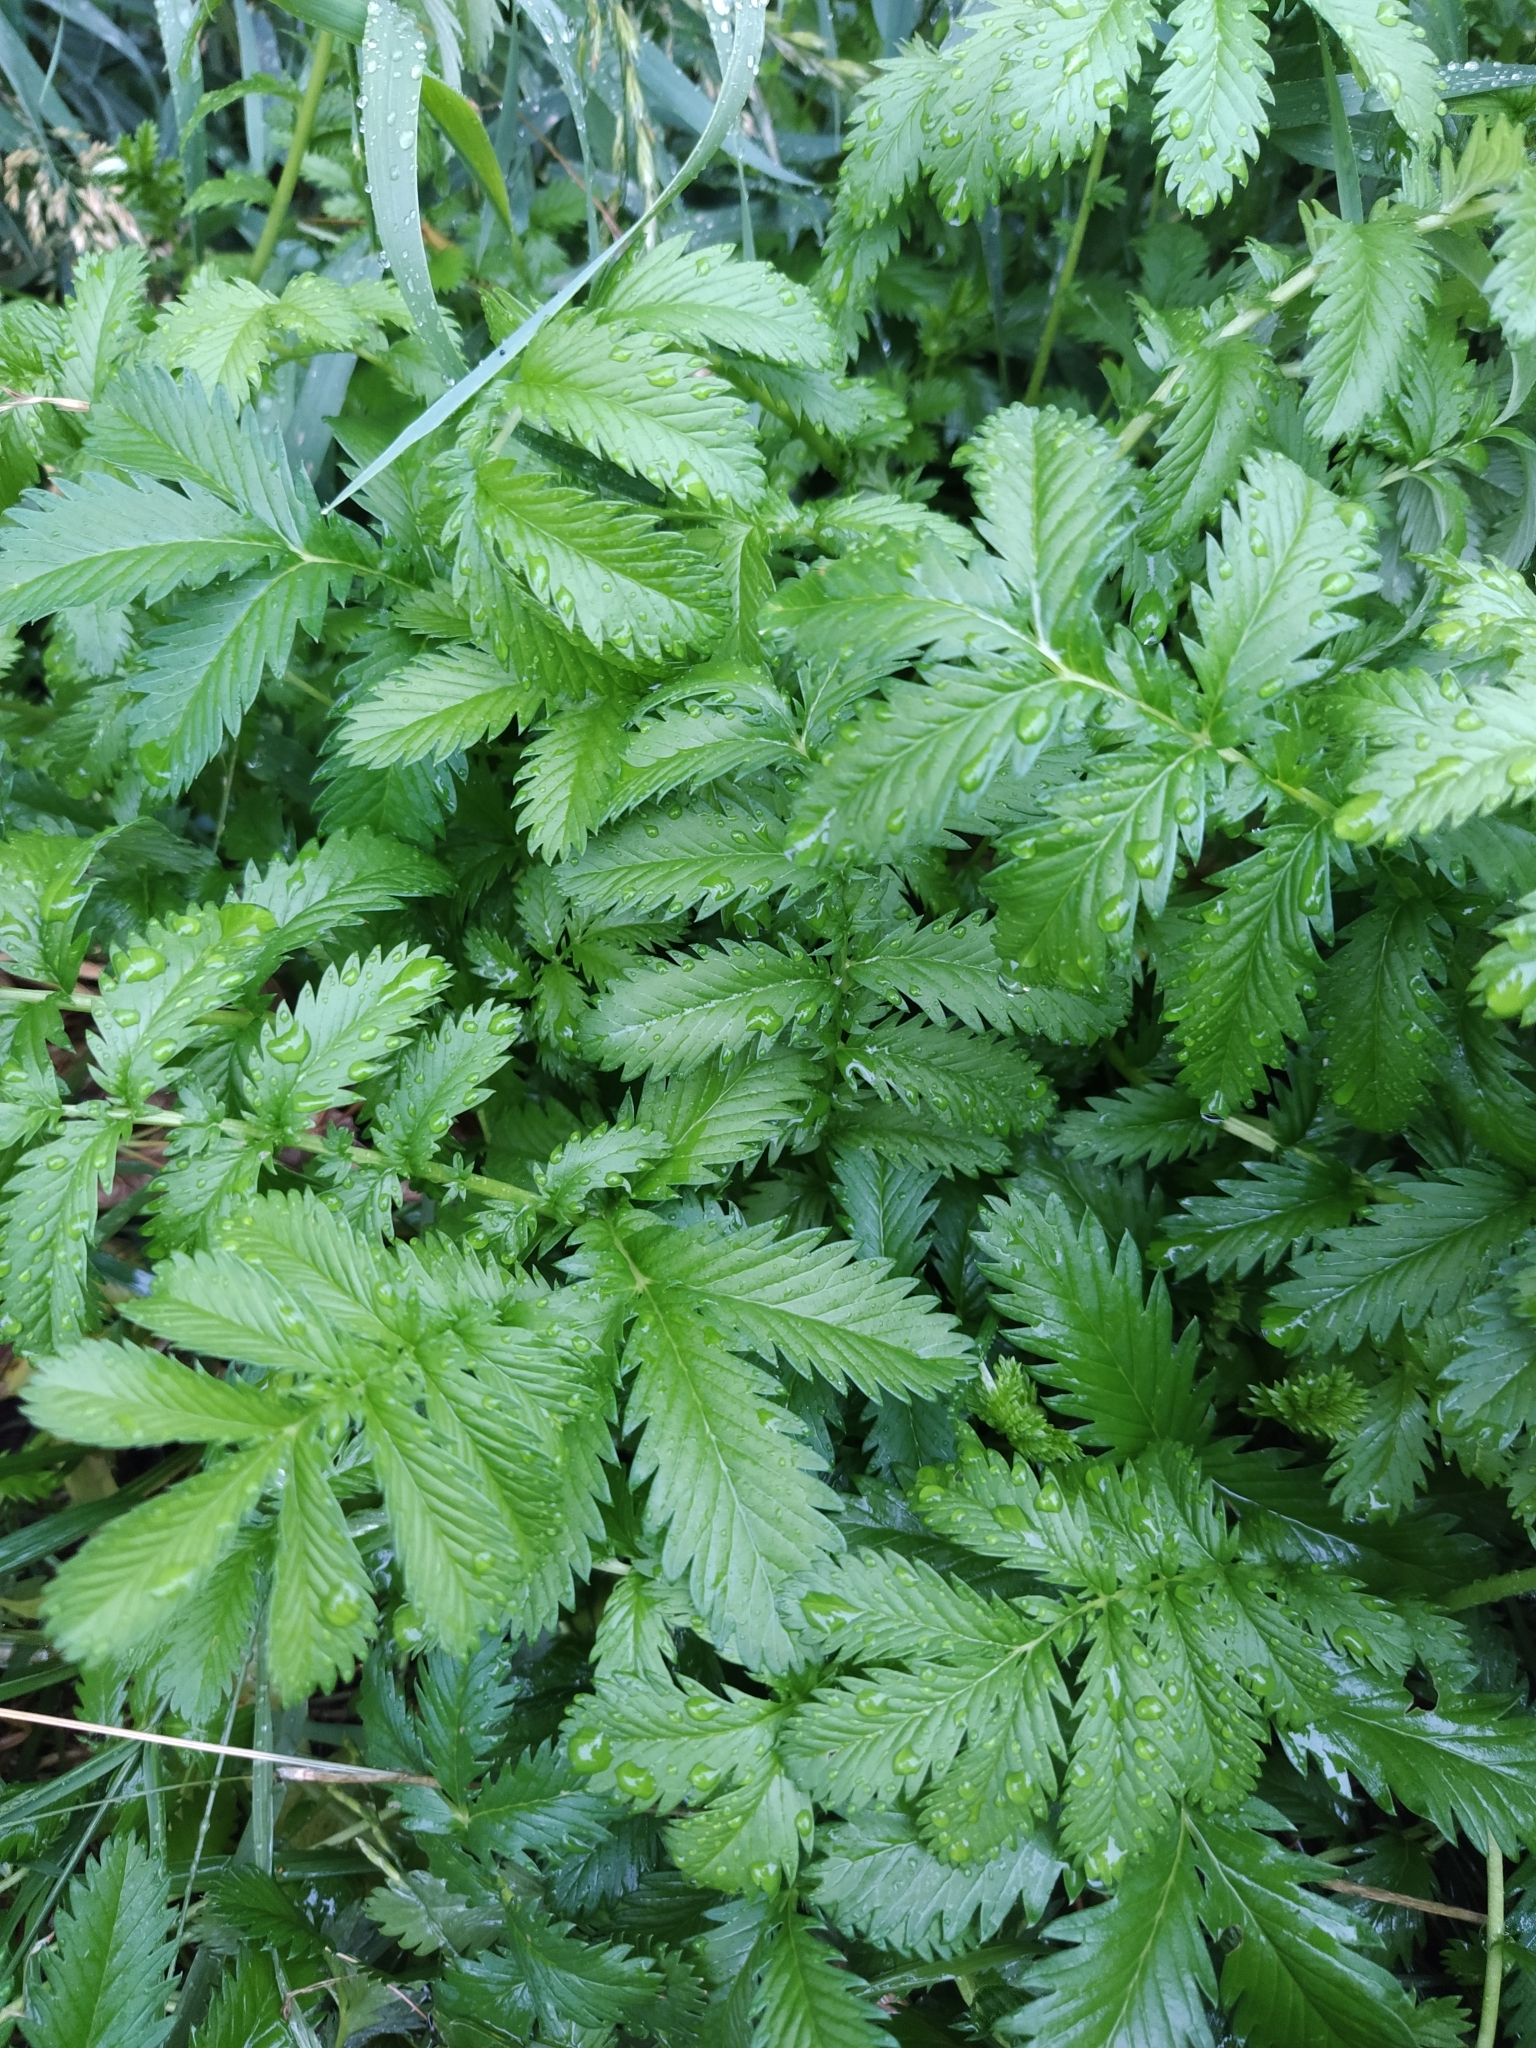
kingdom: Plantae
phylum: Tracheophyta
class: Magnoliopsida
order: Rosales
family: Rosaceae
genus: Argentina
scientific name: Argentina anserina
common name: Common silverweed
